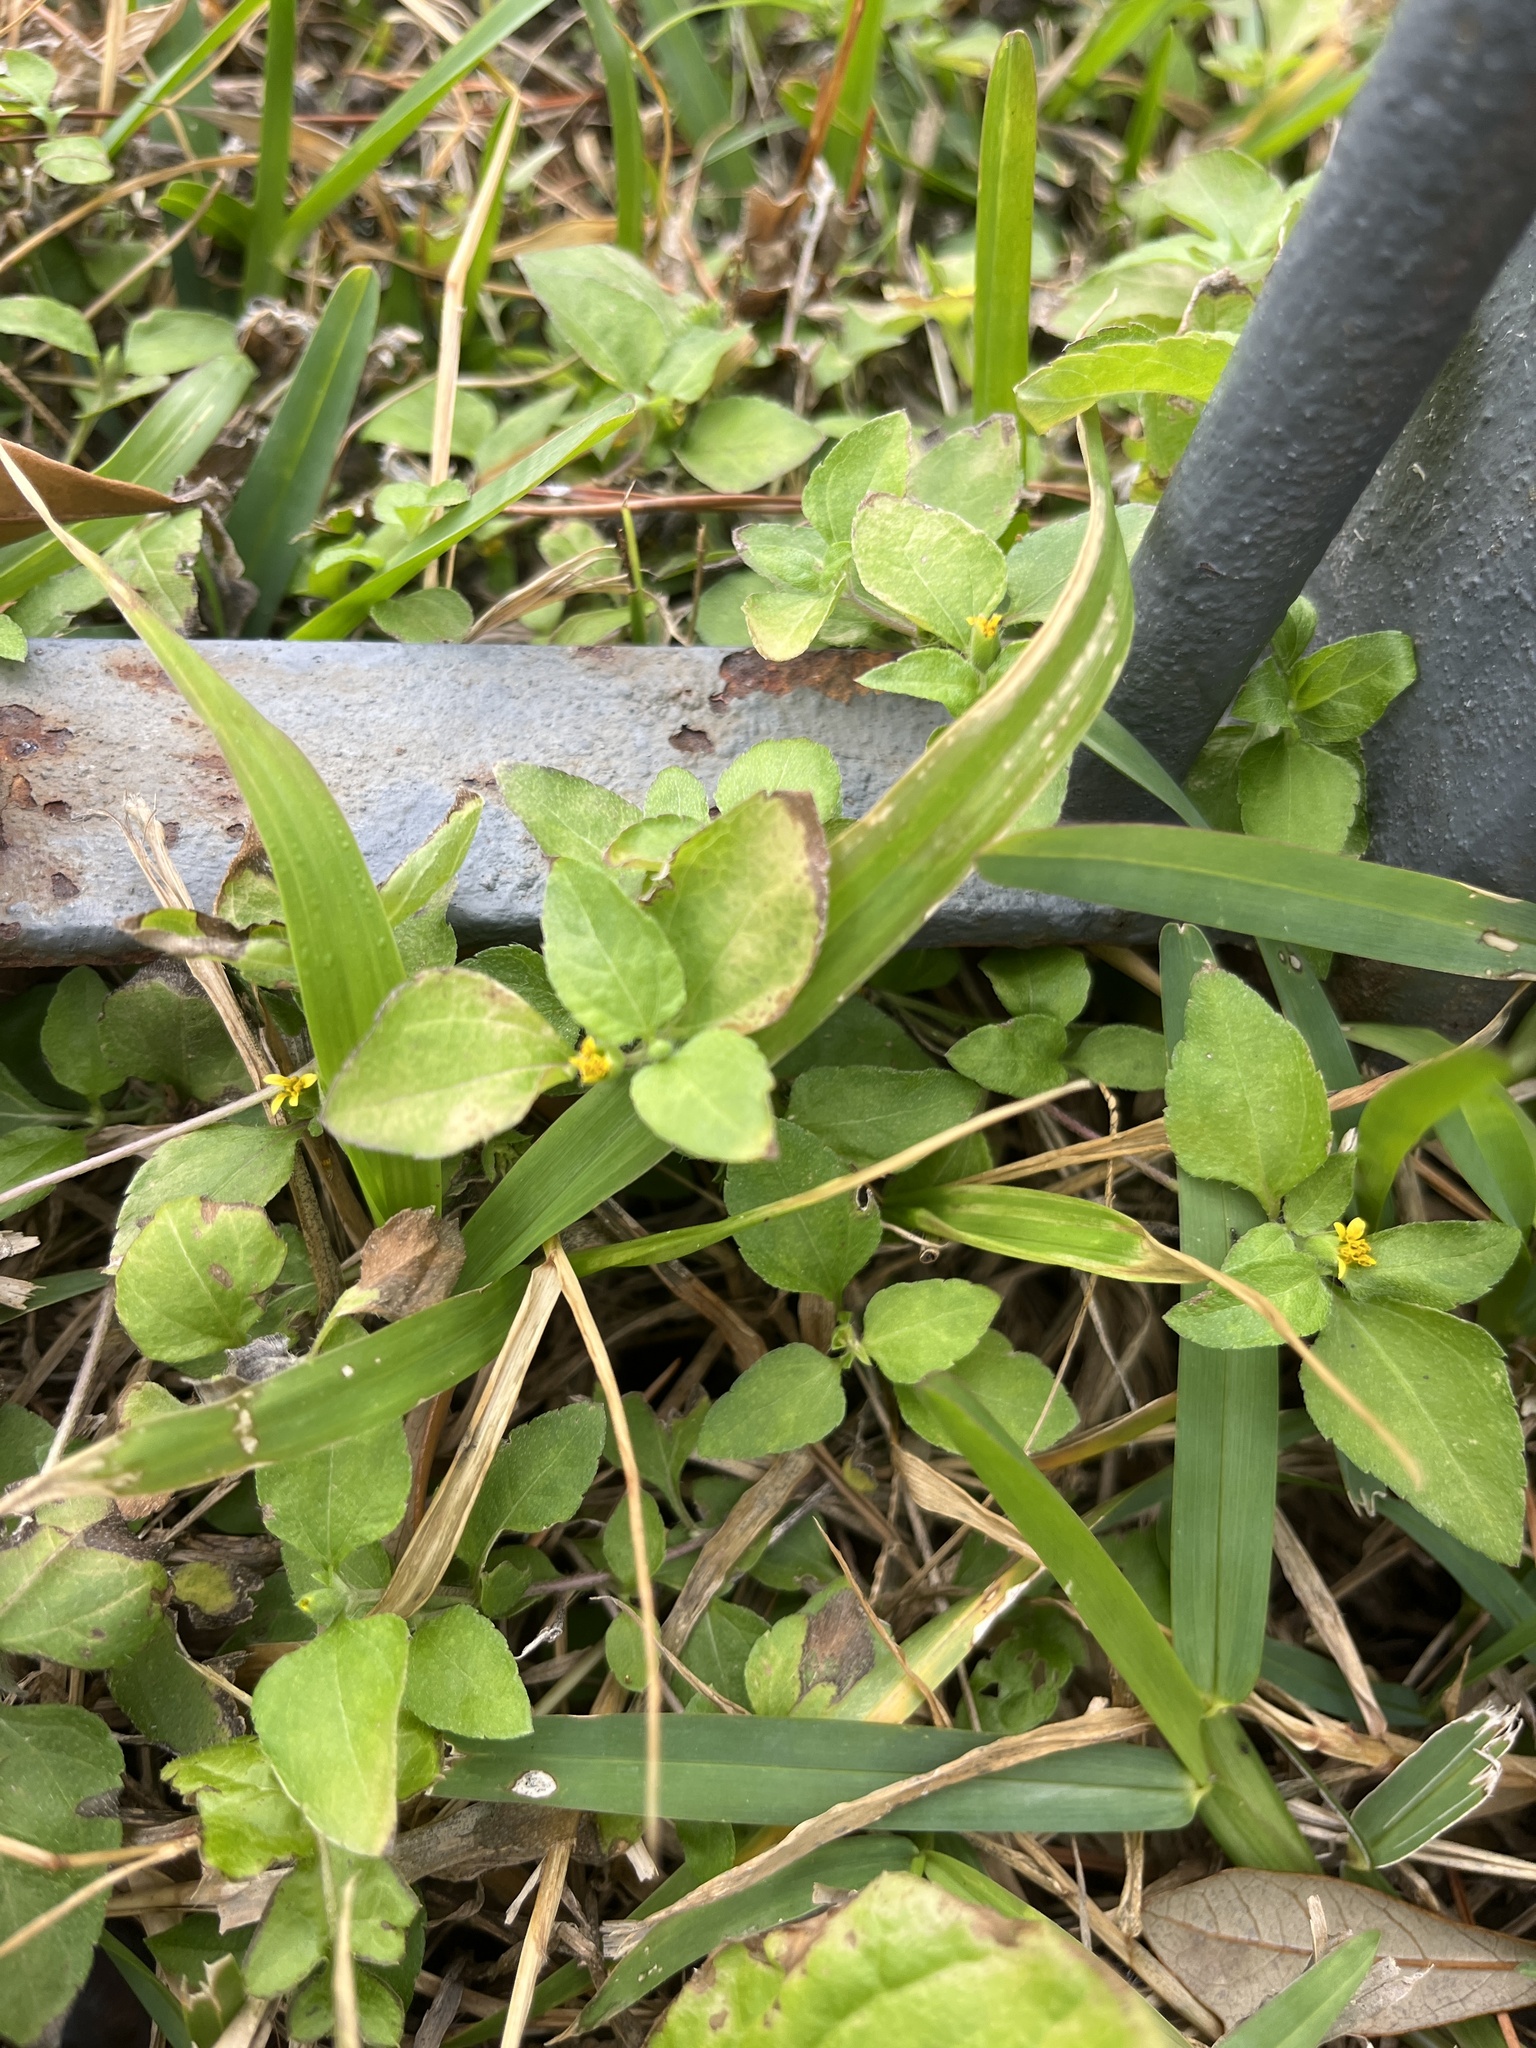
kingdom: Plantae
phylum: Tracheophyta
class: Magnoliopsida
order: Asterales
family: Asteraceae
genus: Calyptocarpus
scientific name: Calyptocarpus vialis
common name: Straggler daisy
